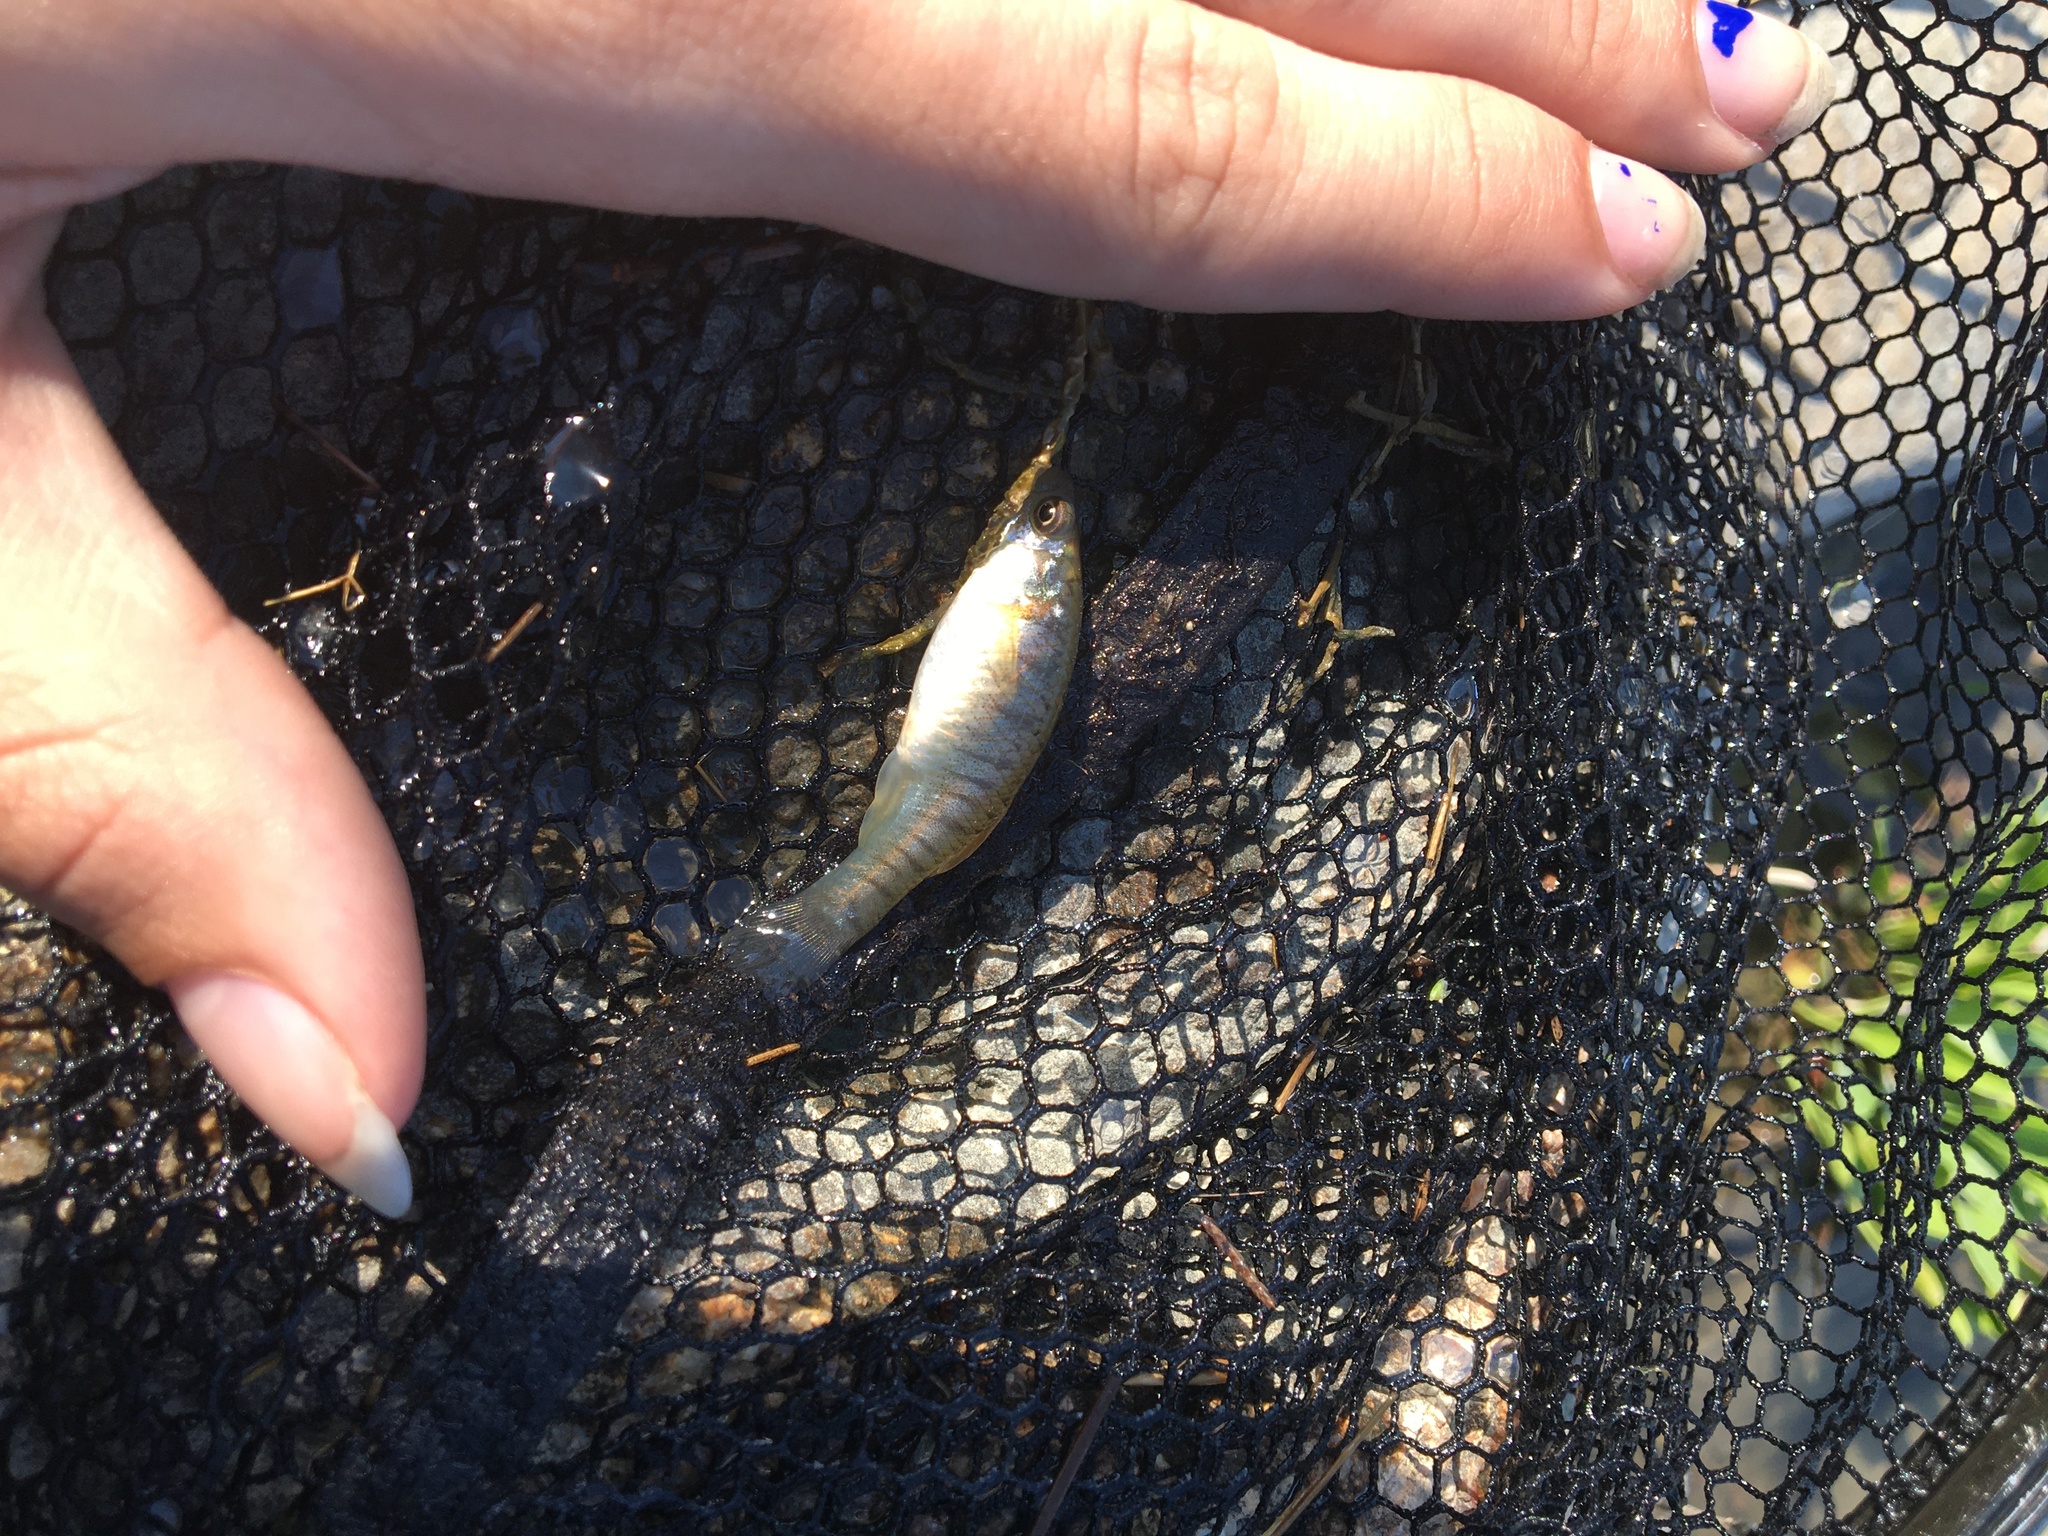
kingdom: Animalia
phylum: Chordata
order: Cyprinodontiformes
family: Fundulidae
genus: Fundulus
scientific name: Fundulus heteroclitus
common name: Mummichog
